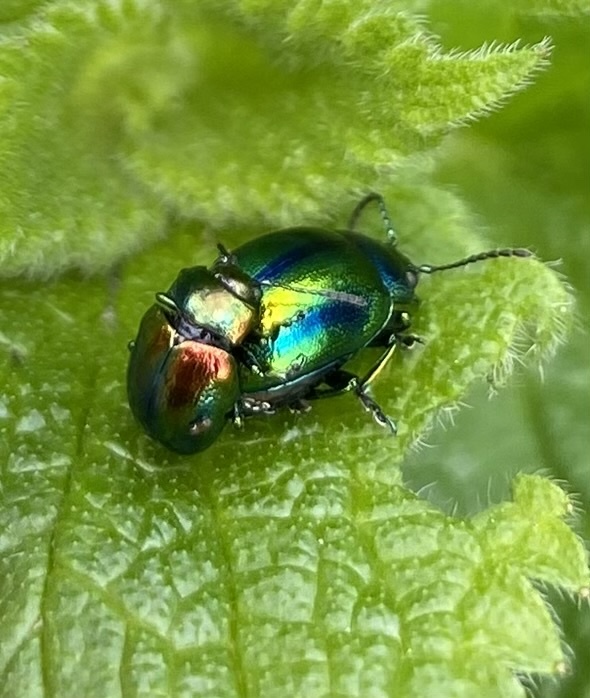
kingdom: Animalia
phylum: Arthropoda
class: Insecta
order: Coleoptera
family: Chrysomelidae
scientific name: Chrysomelidae
